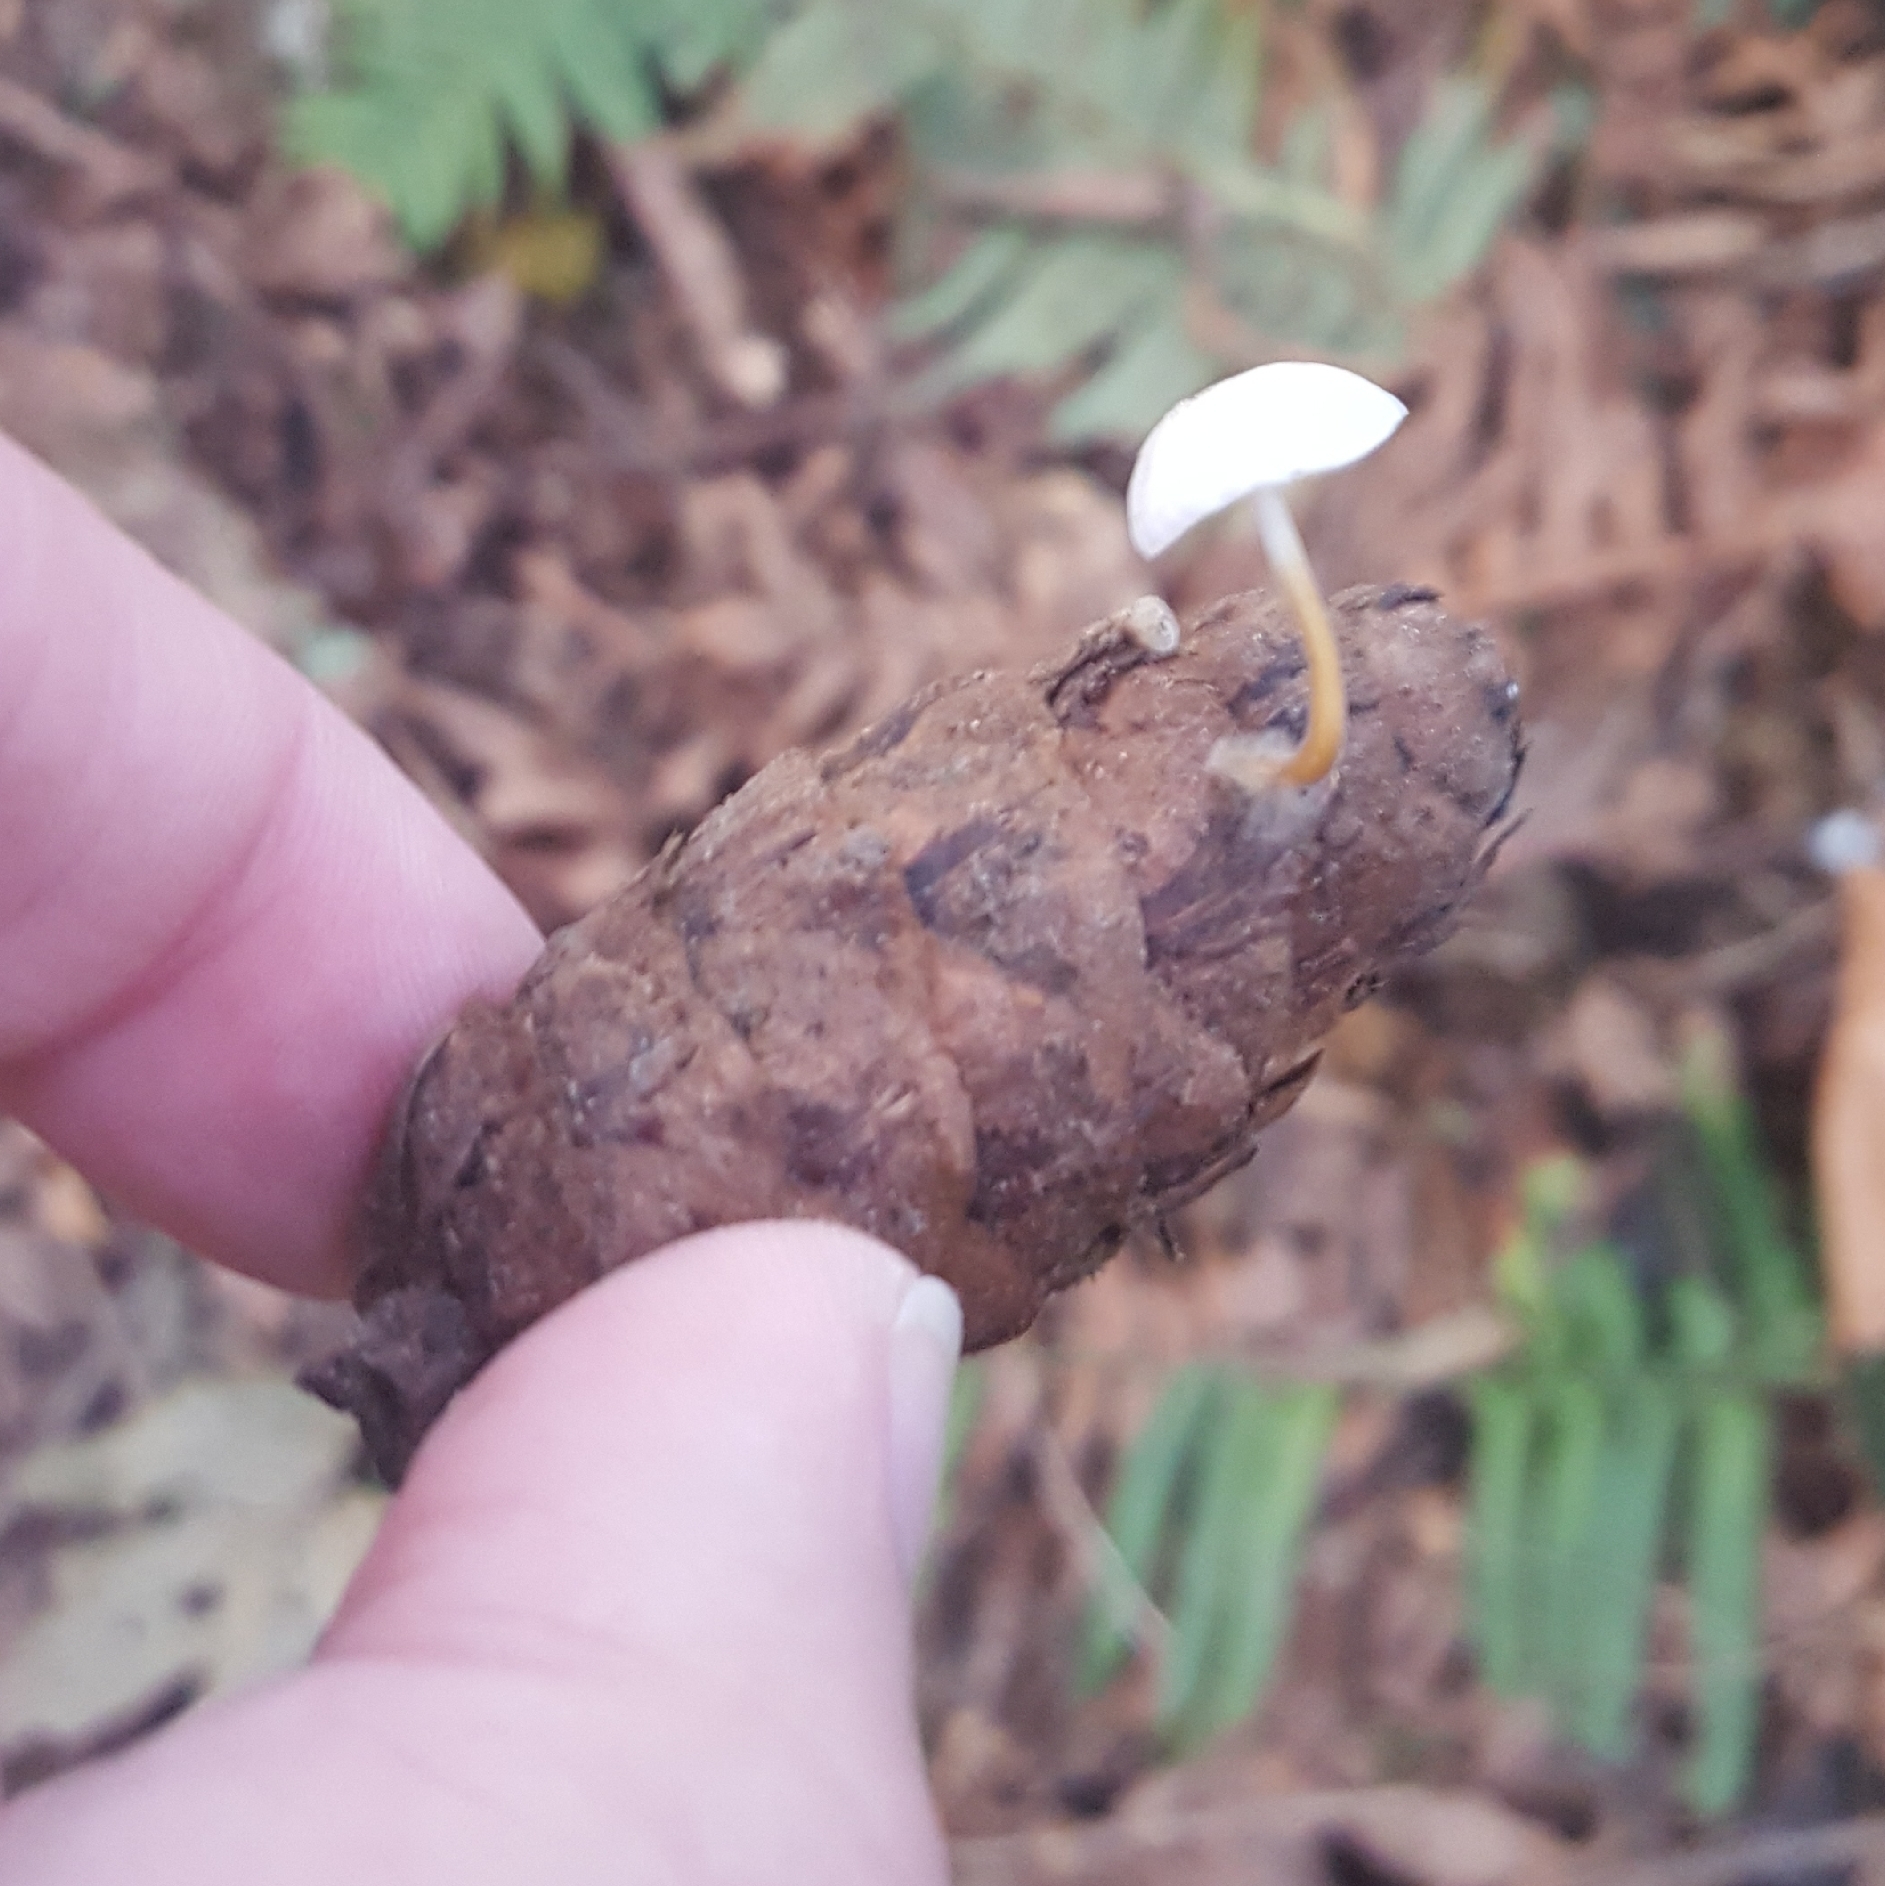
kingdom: Fungi
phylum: Basidiomycota
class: Agaricomycetes
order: Agaricales
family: Physalacriaceae
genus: Strobilurus
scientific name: Strobilurus trullisatus
